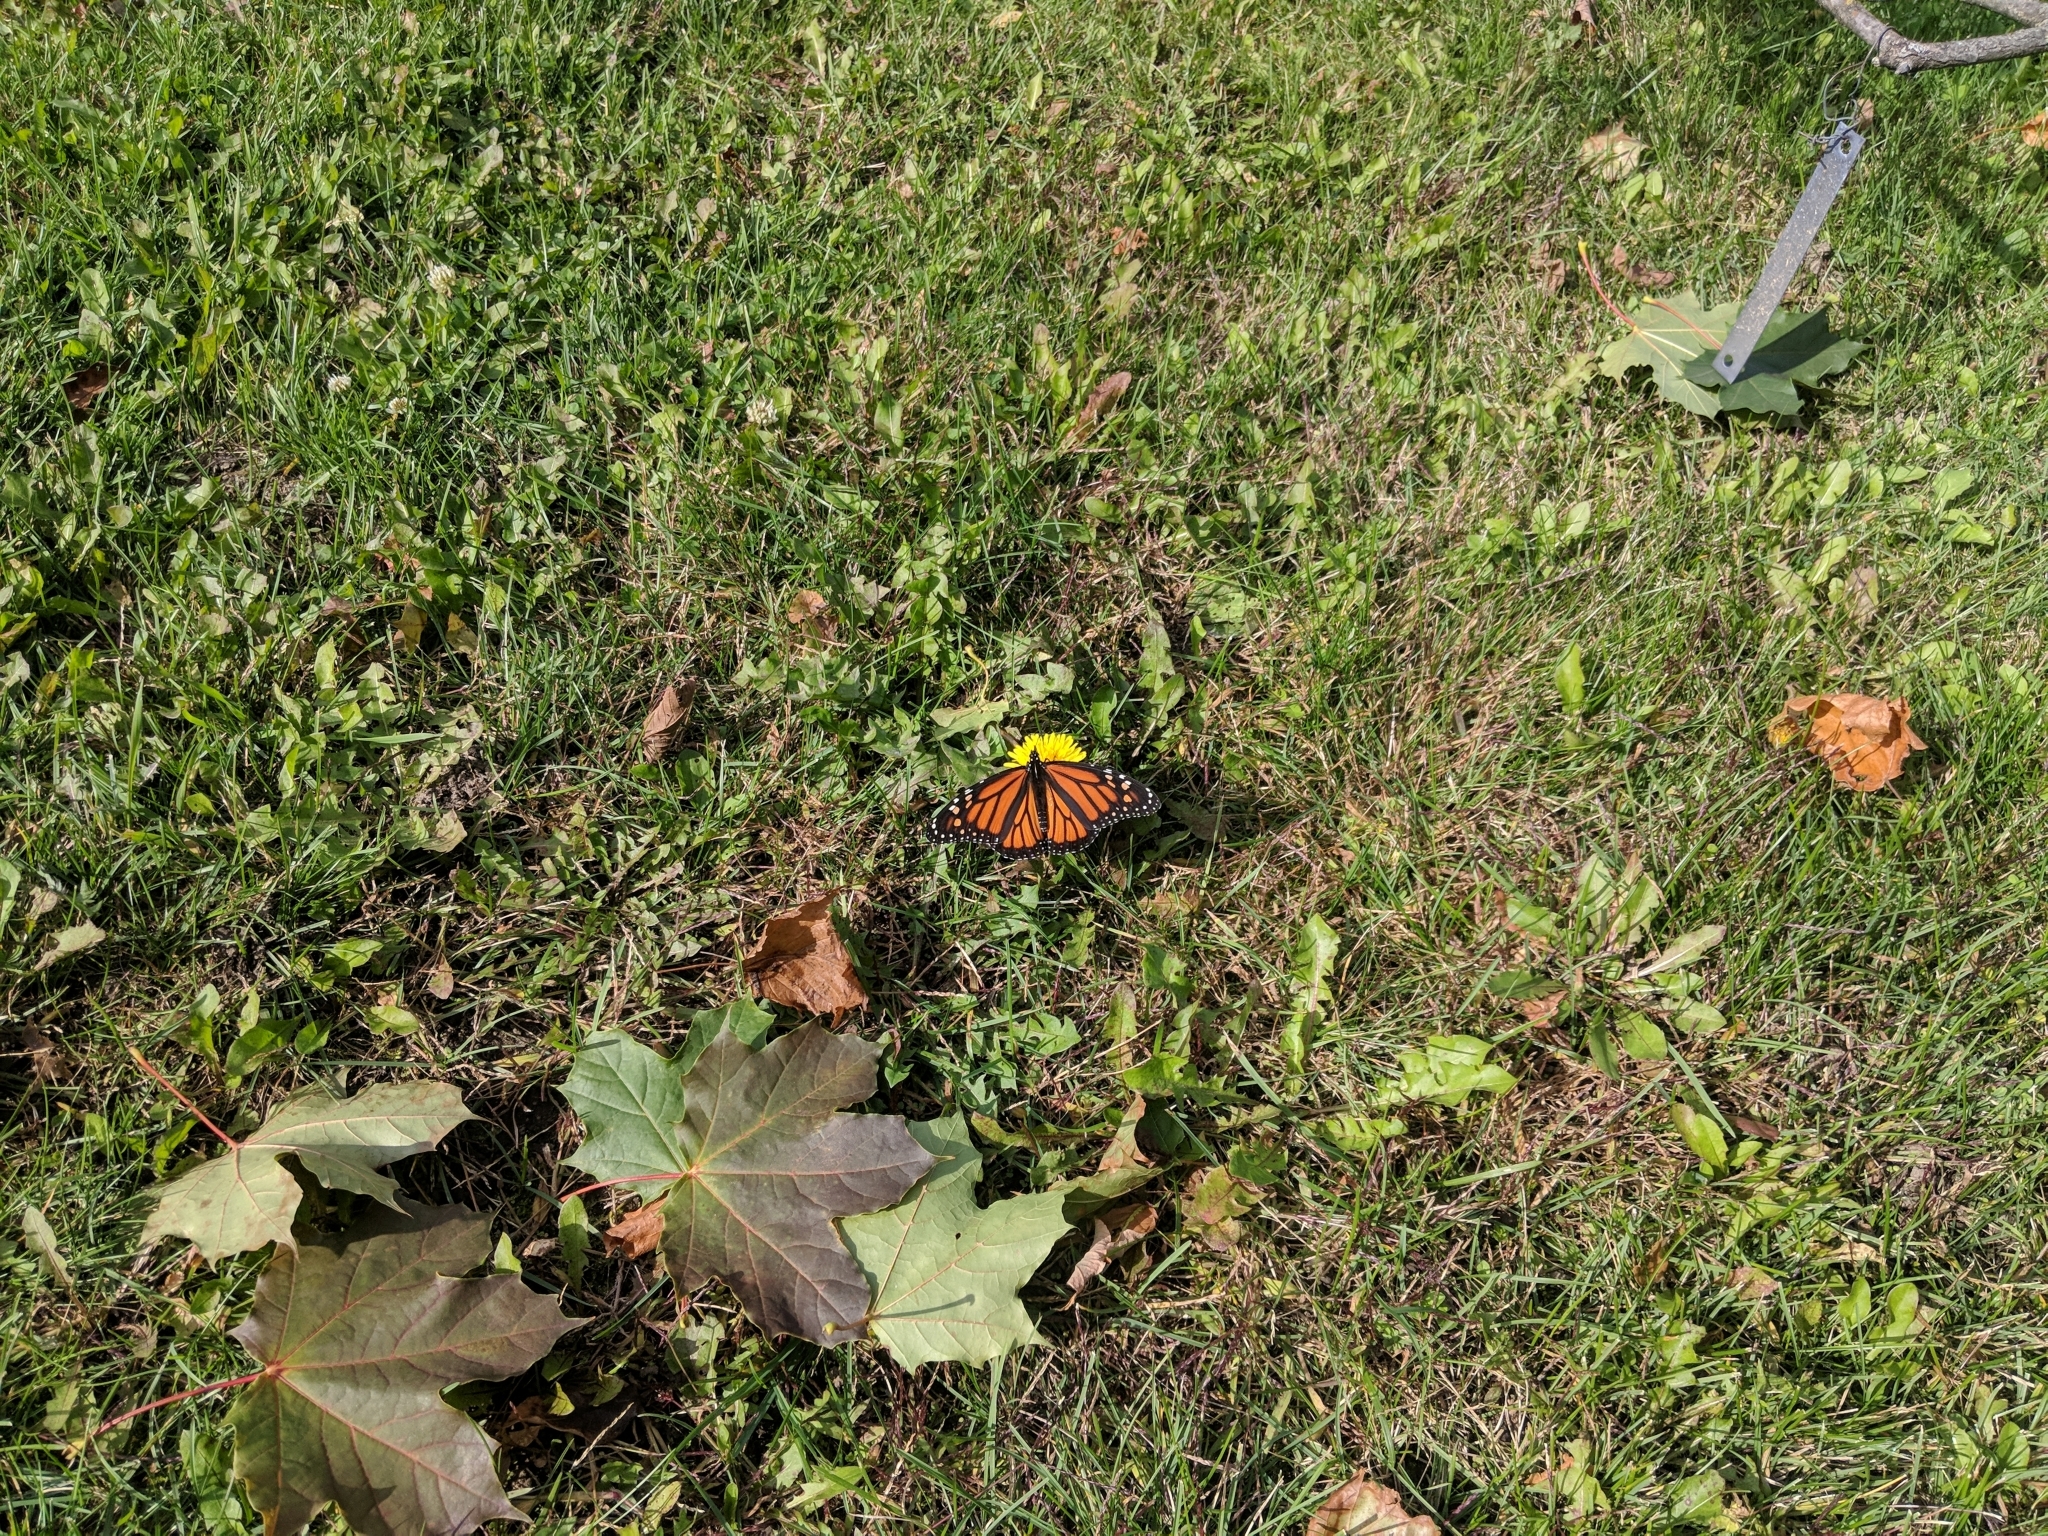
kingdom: Animalia
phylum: Arthropoda
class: Insecta
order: Lepidoptera
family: Nymphalidae
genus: Danaus
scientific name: Danaus plexippus
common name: Monarch
